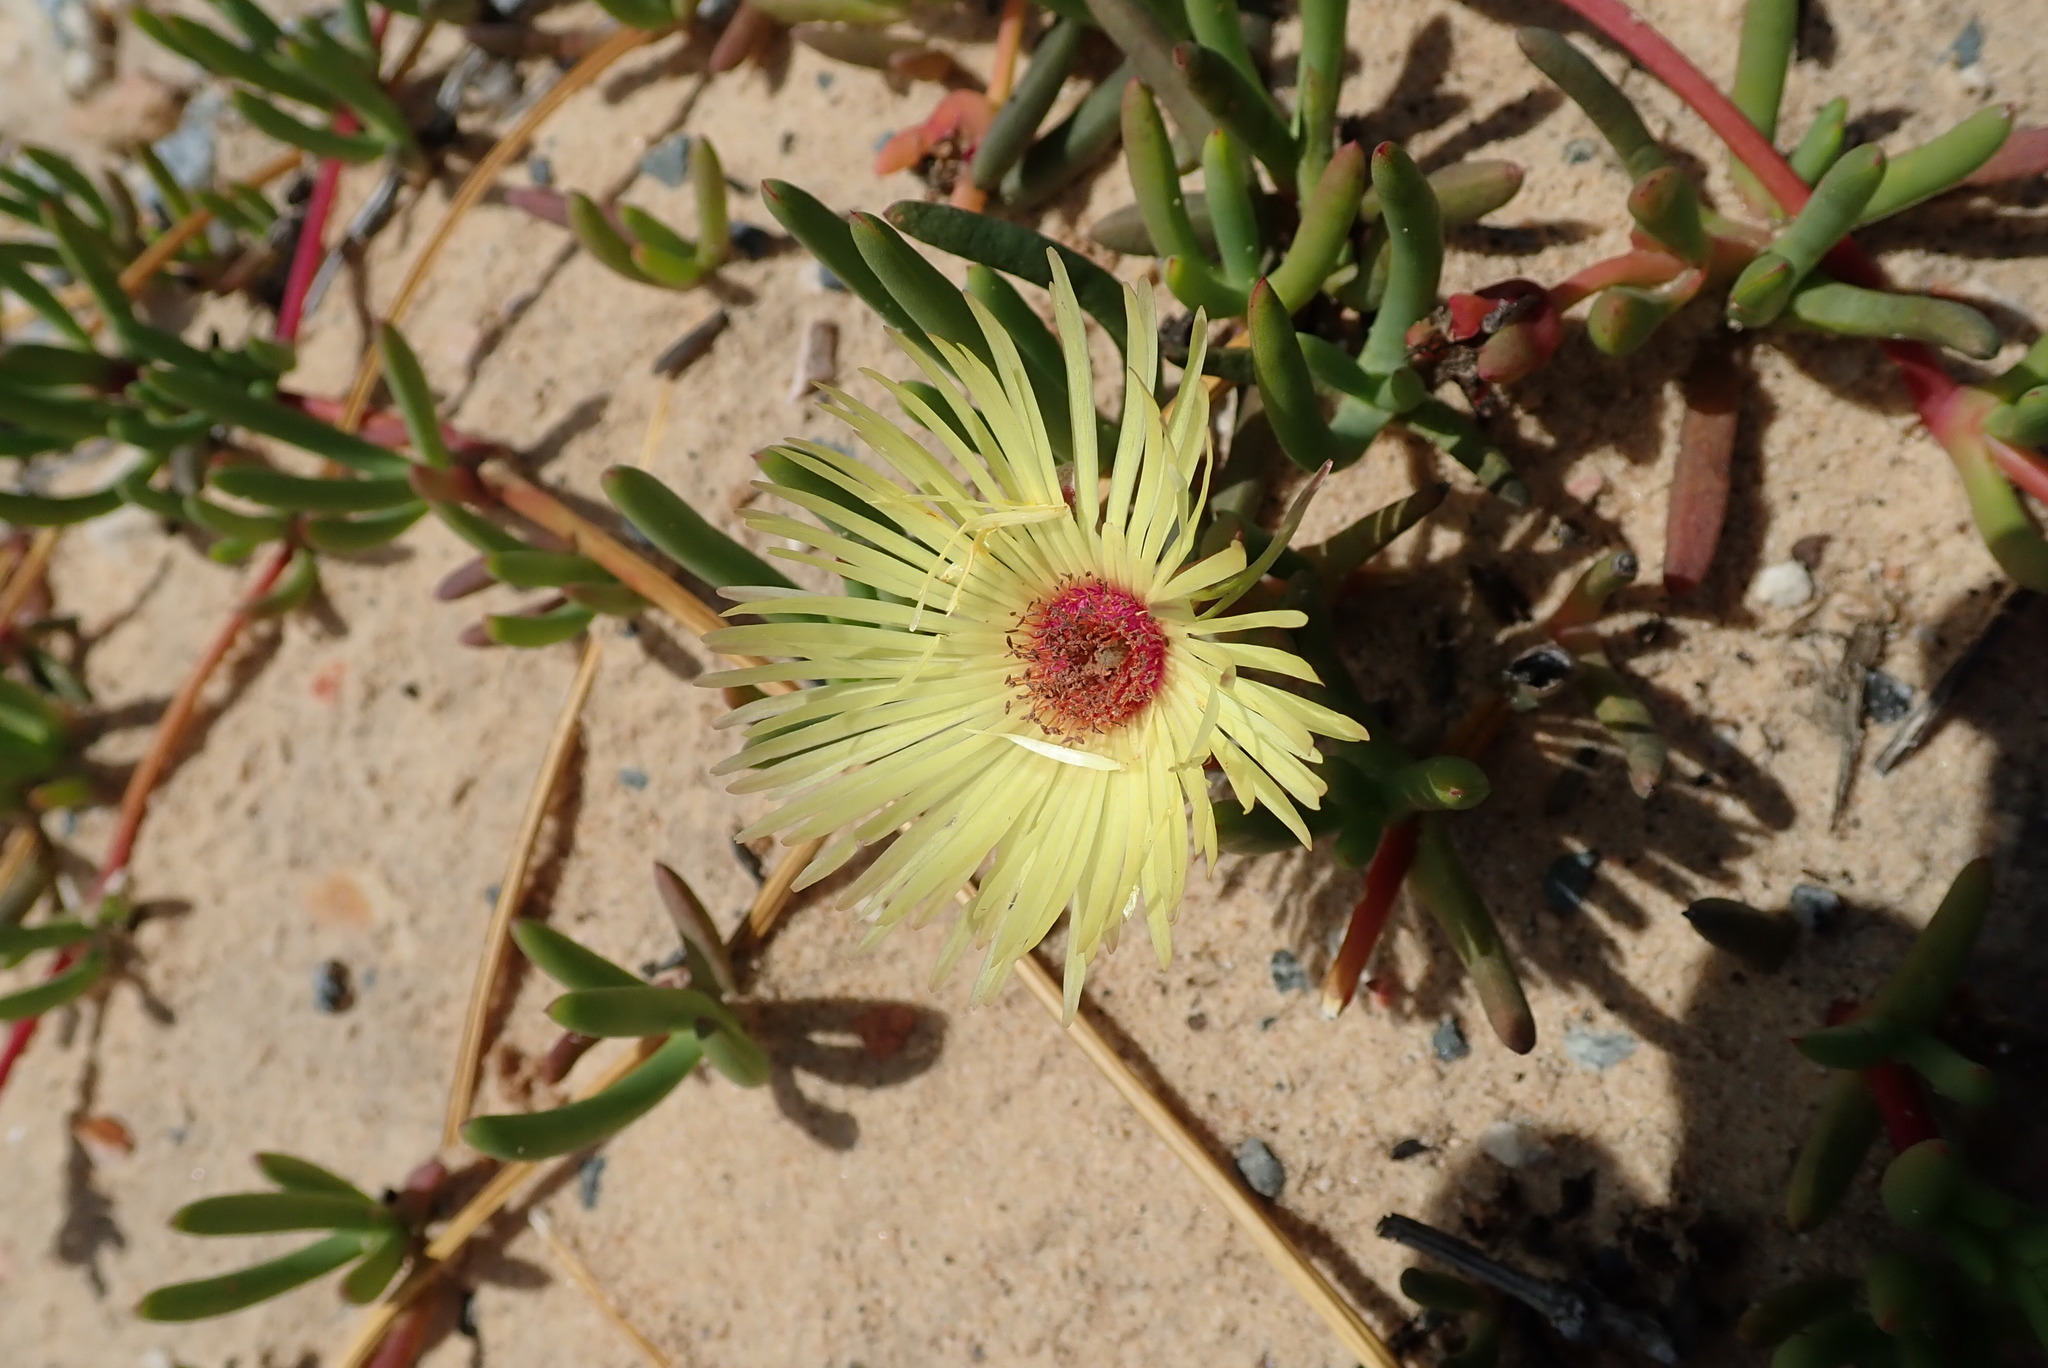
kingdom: Plantae
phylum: Tracheophyta
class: Magnoliopsida
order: Caryophyllales
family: Aizoaceae
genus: Cephalophyllum
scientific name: Cephalophyllum tricolorum
